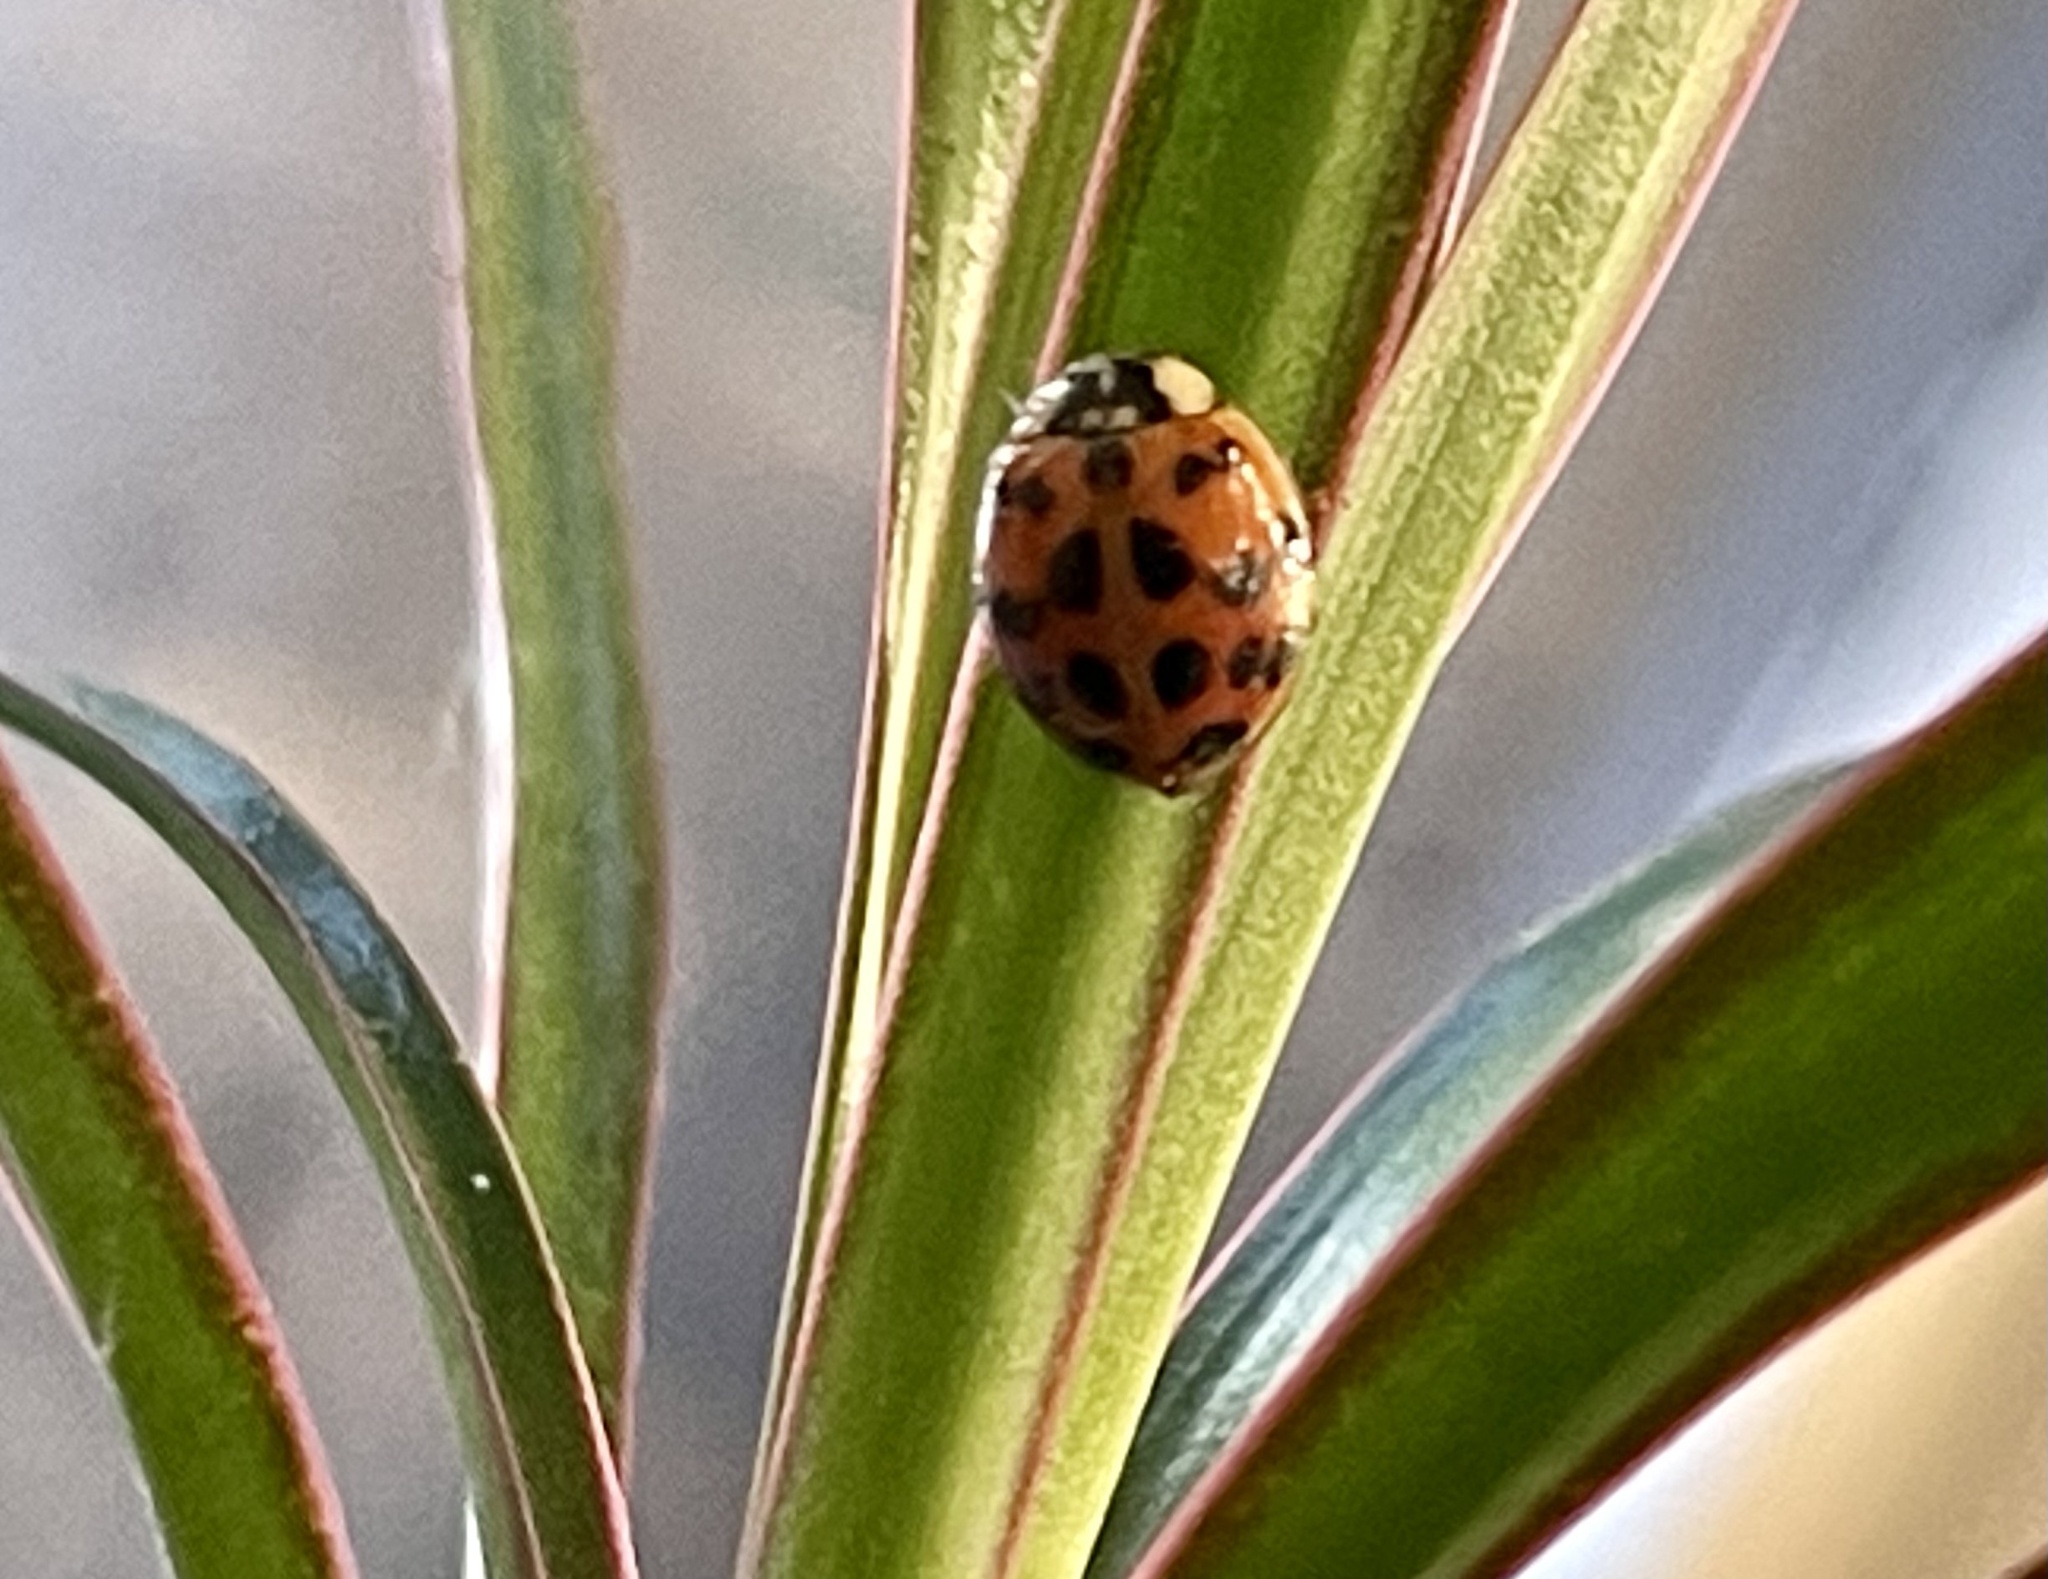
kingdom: Animalia
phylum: Arthropoda
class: Insecta
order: Coleoptera
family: Coccinellidae
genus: Harmonia
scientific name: Harmonia axyridis
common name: Harlequin ladybird
